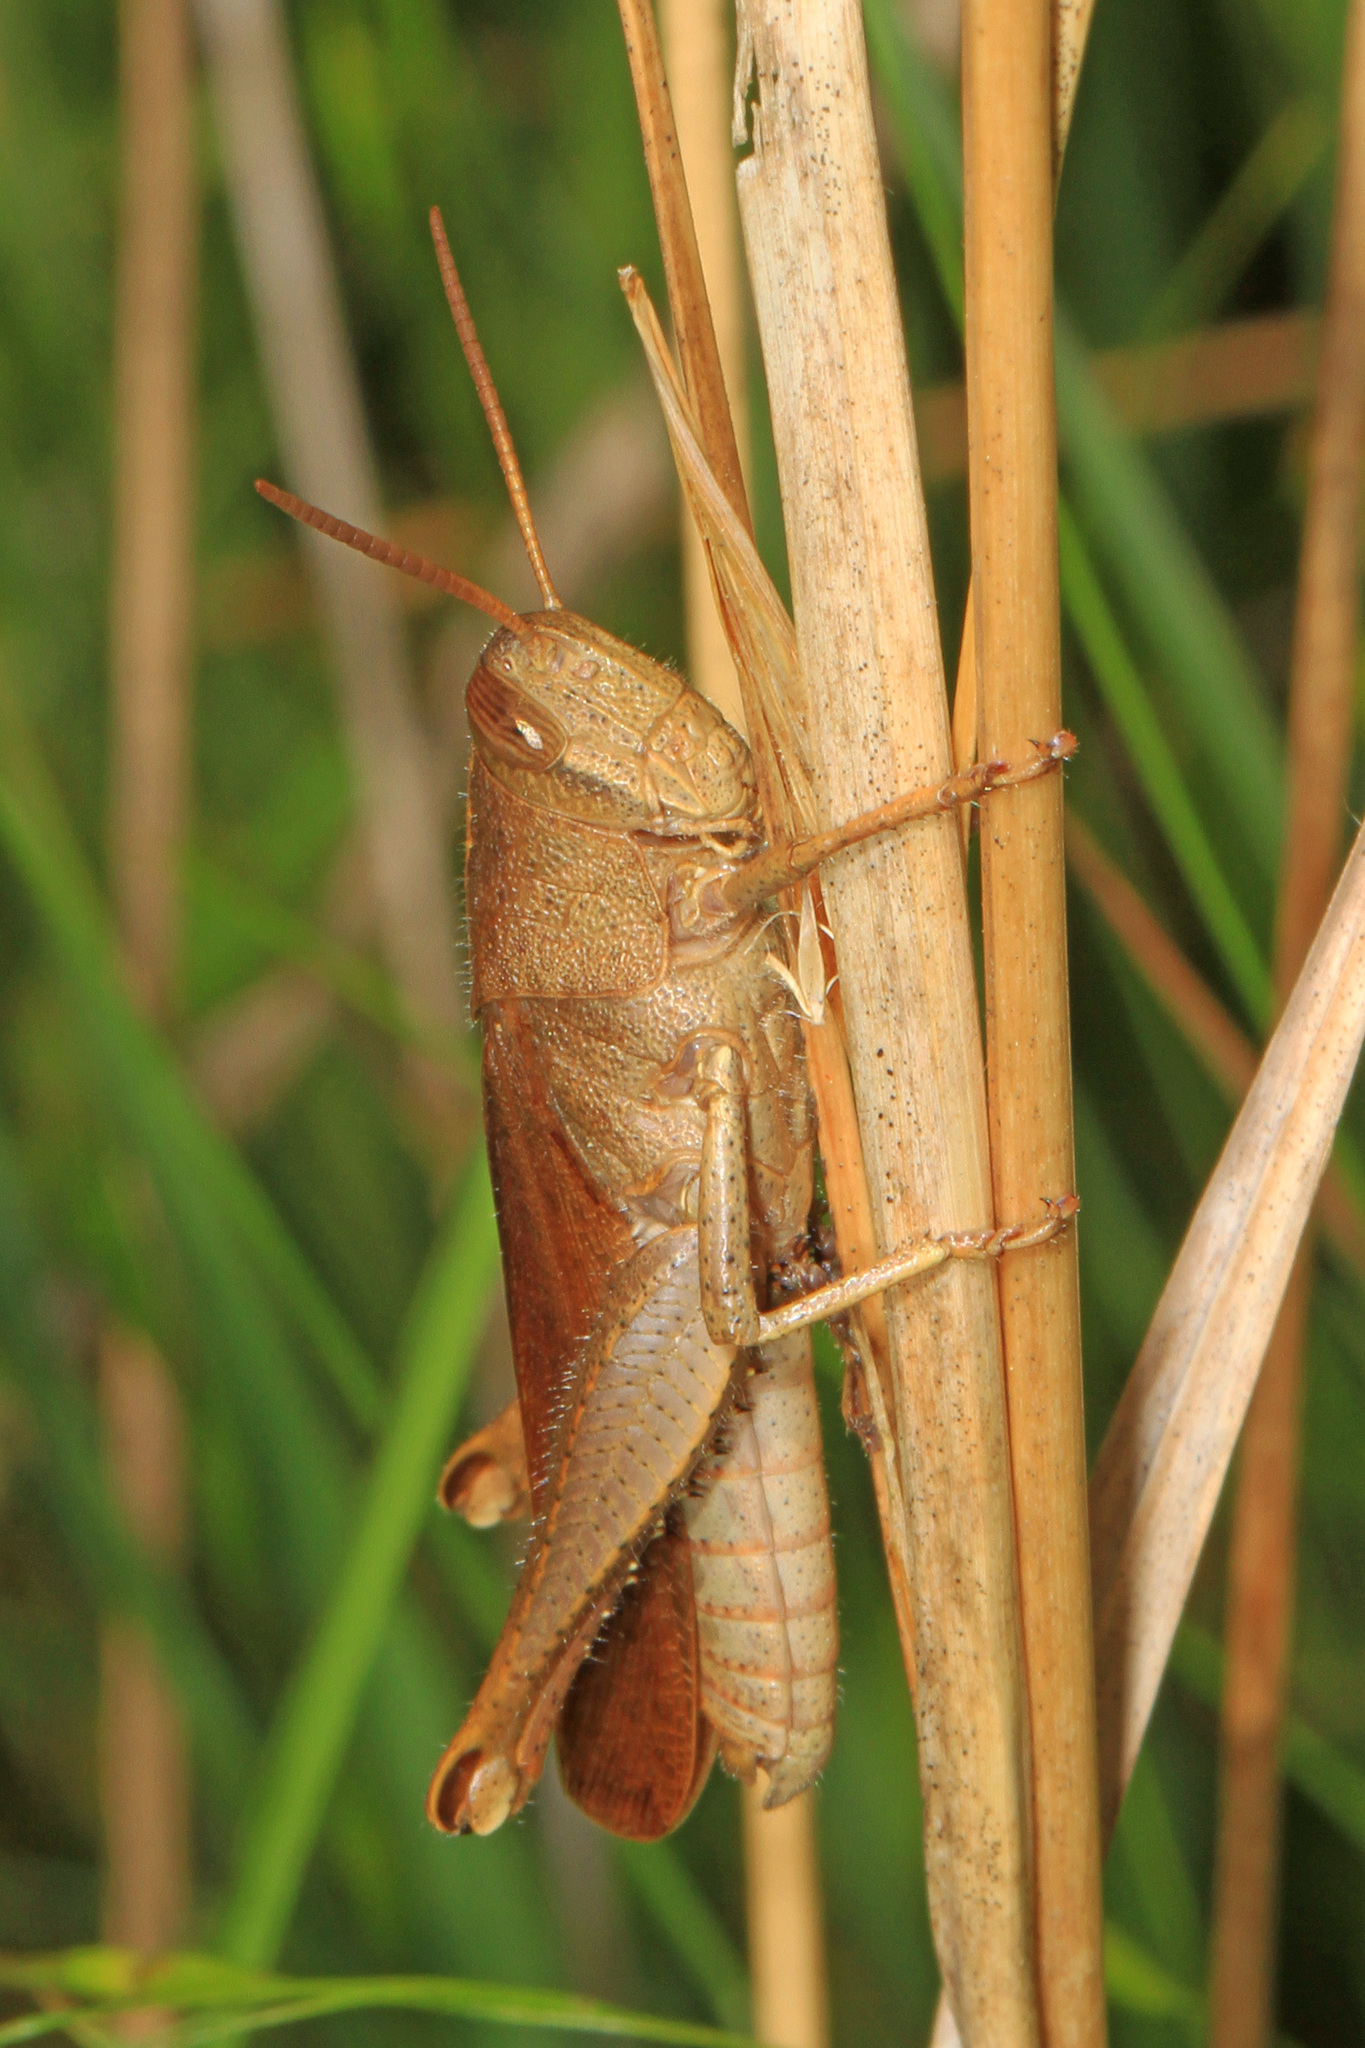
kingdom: Animalia
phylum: Arthropoda
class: Insecta
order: Orthoptera
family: Acrididae
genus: Schistocerca
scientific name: Schistocerca damnifica
